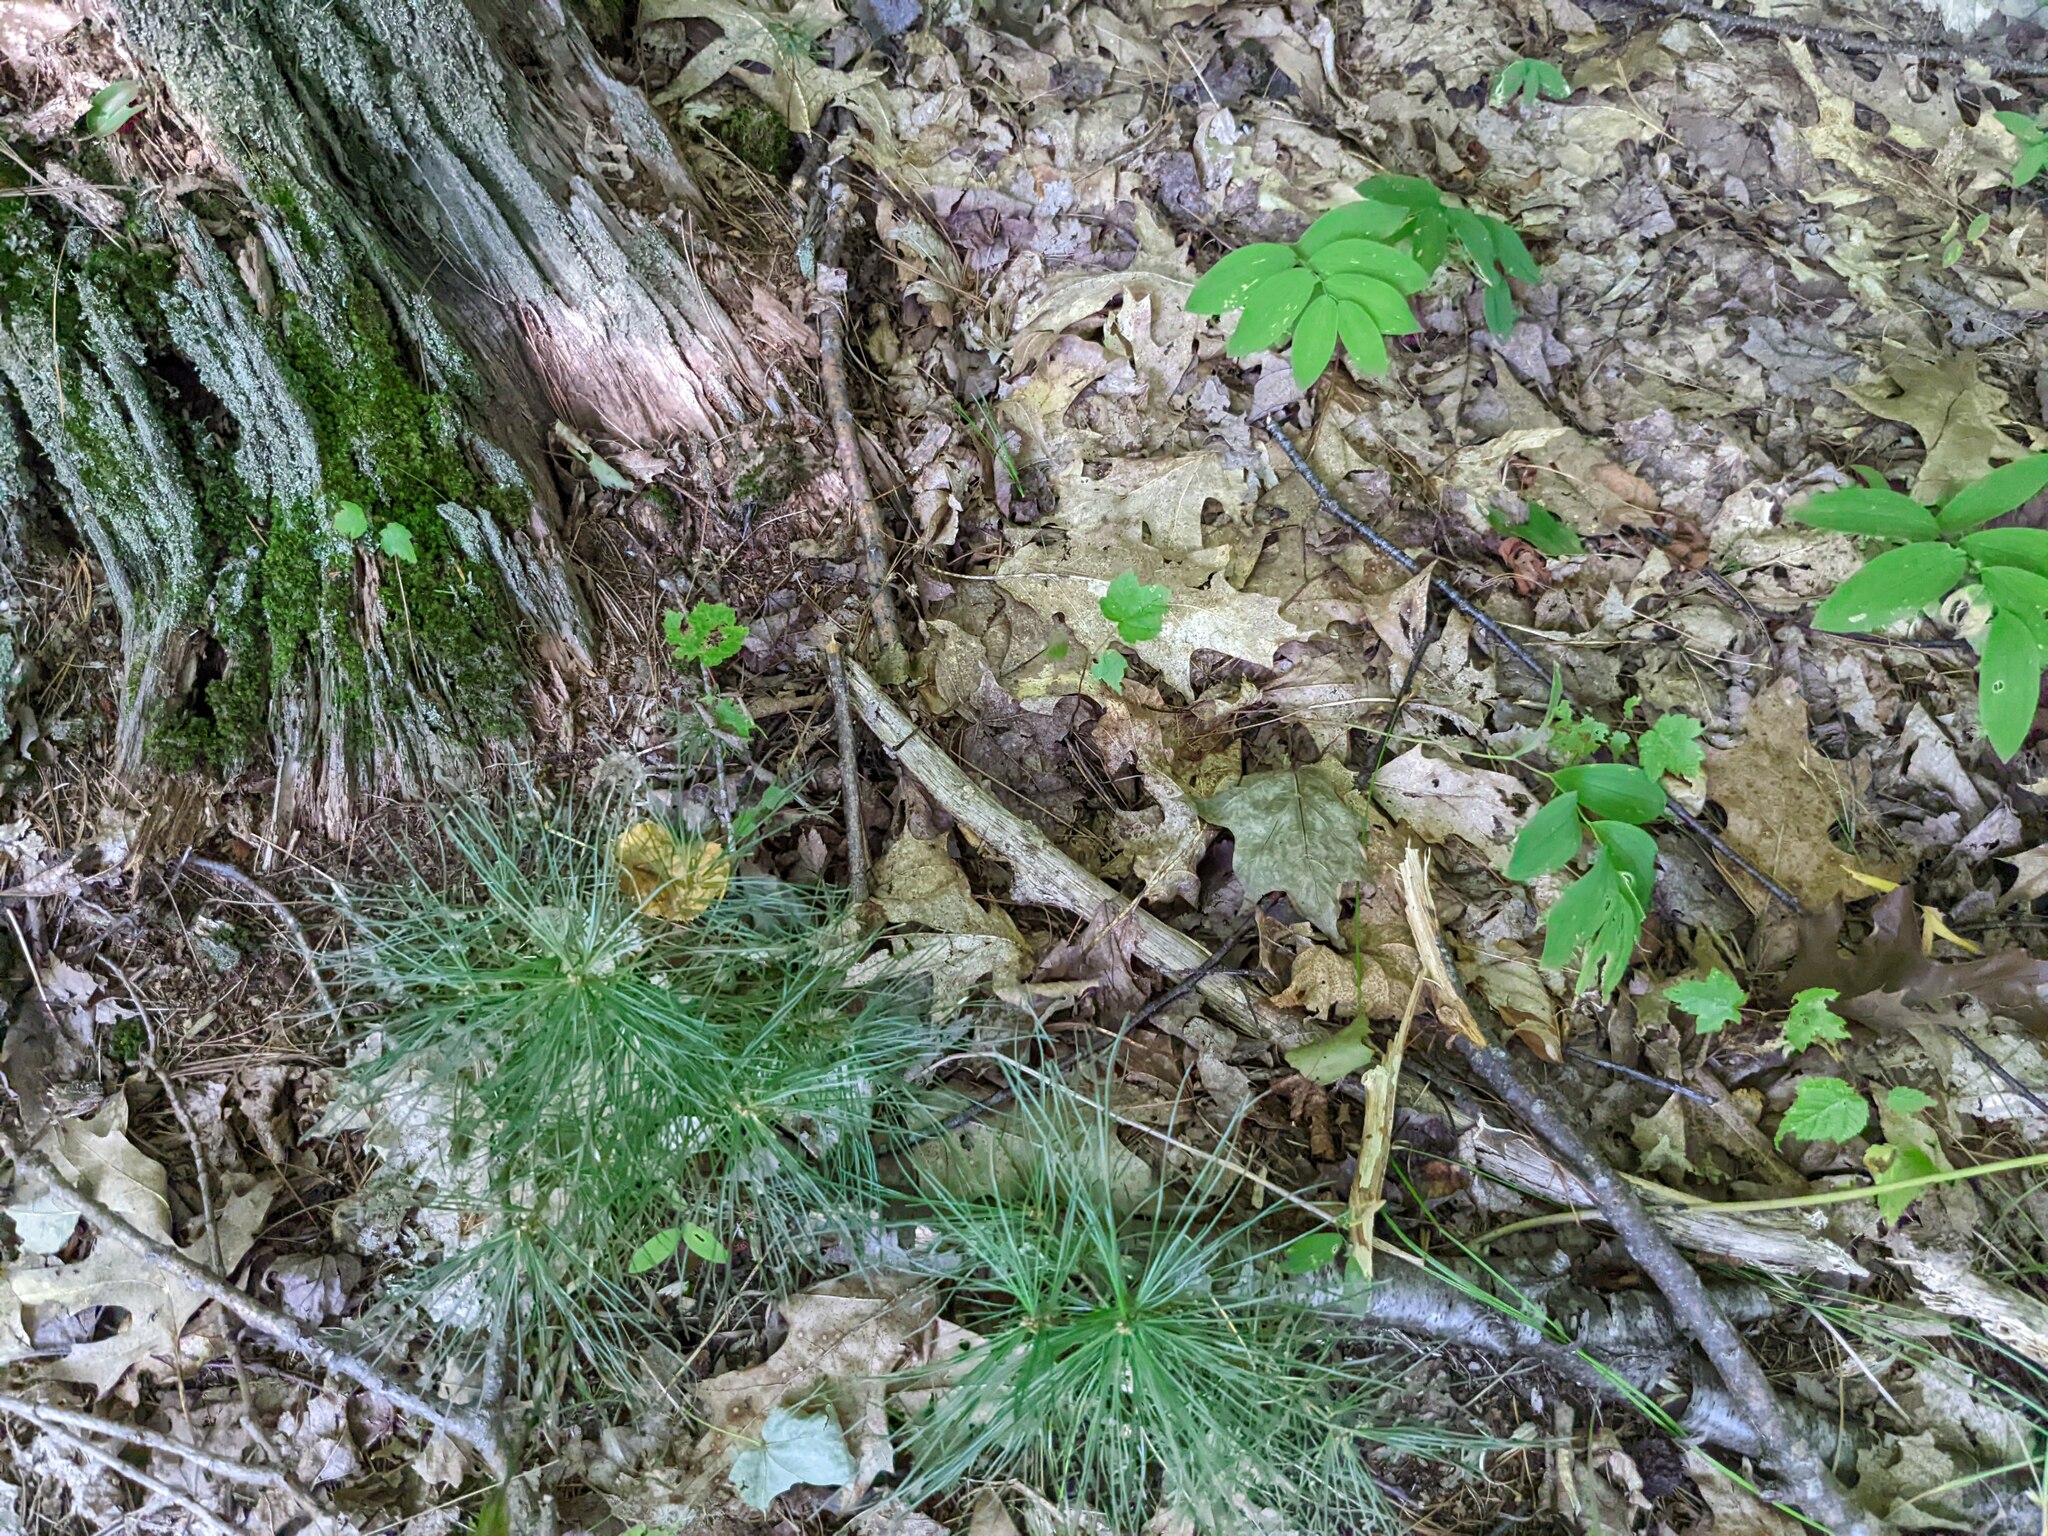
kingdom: Plantae
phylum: Tracheophyta
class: Pinopsida
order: Pinales
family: Pinaceae
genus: Pinus
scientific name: Pinus strobus
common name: Weymouth pine
